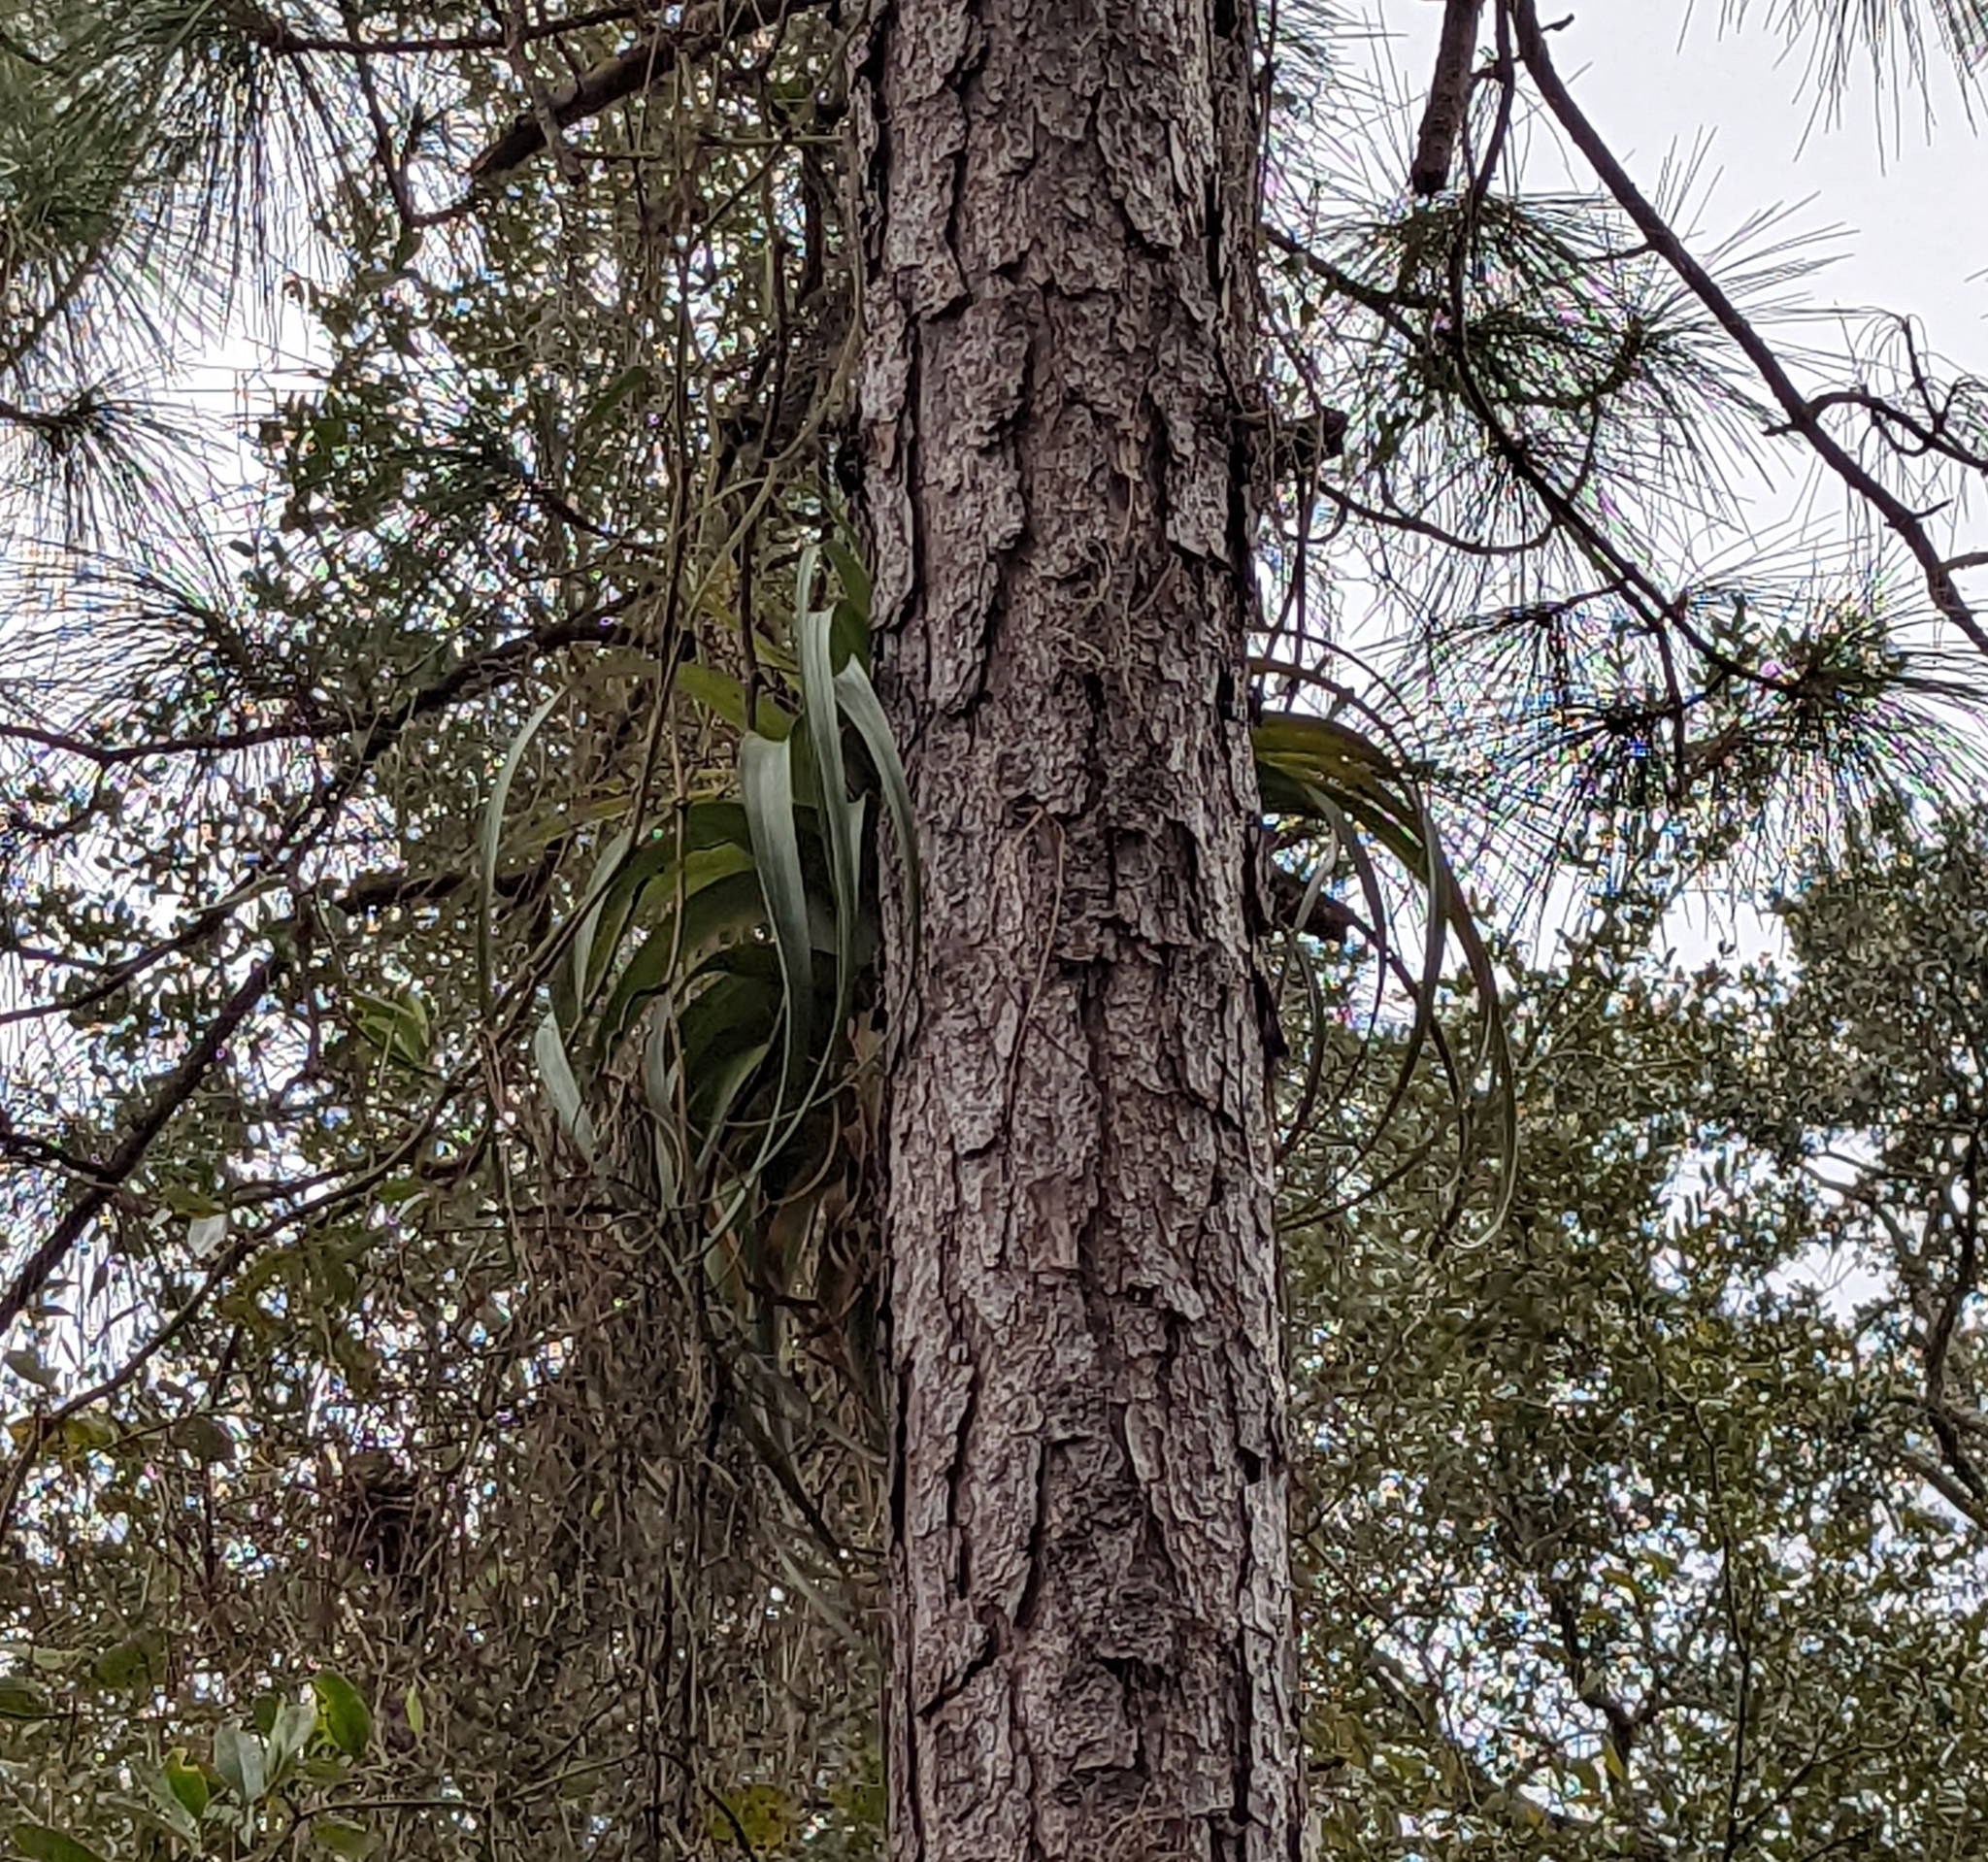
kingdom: Plantae
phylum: Tracheophyta
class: Liliopsida
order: Poales
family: Bromeliaceae
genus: Tillandsia
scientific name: Tillandsia utriculata
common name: Wild pine
